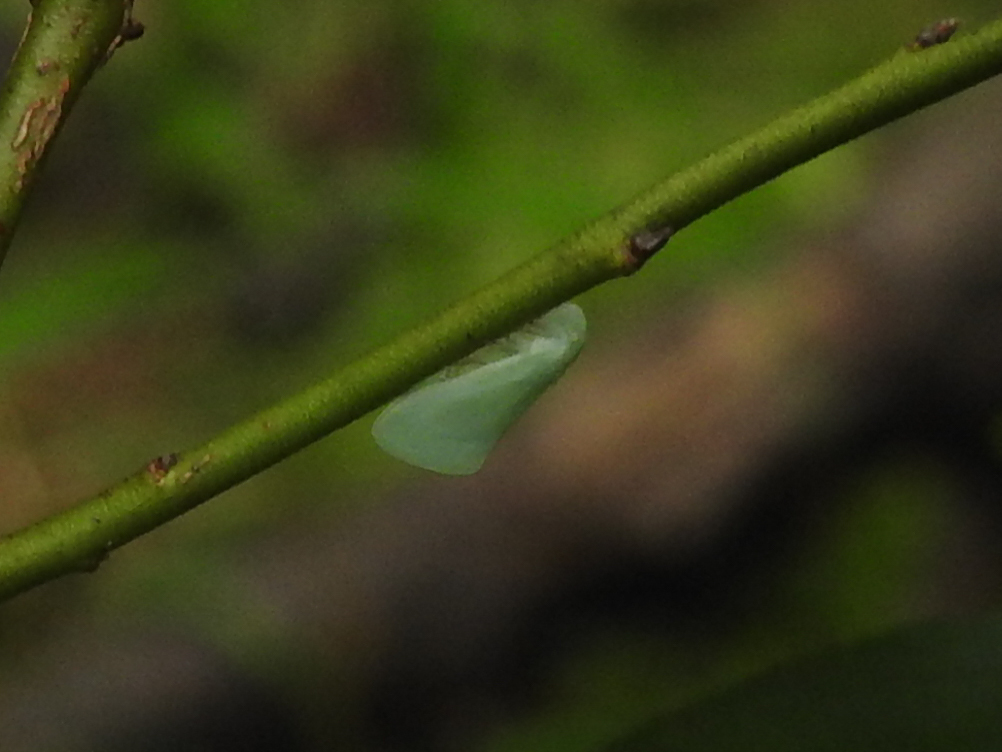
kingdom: Animalia
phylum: Arthropoda
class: Insecta
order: Hemiptera
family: Flatidae
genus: Flatormenis
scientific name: Flatormenis proxima
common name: Northern flatid planthopper
